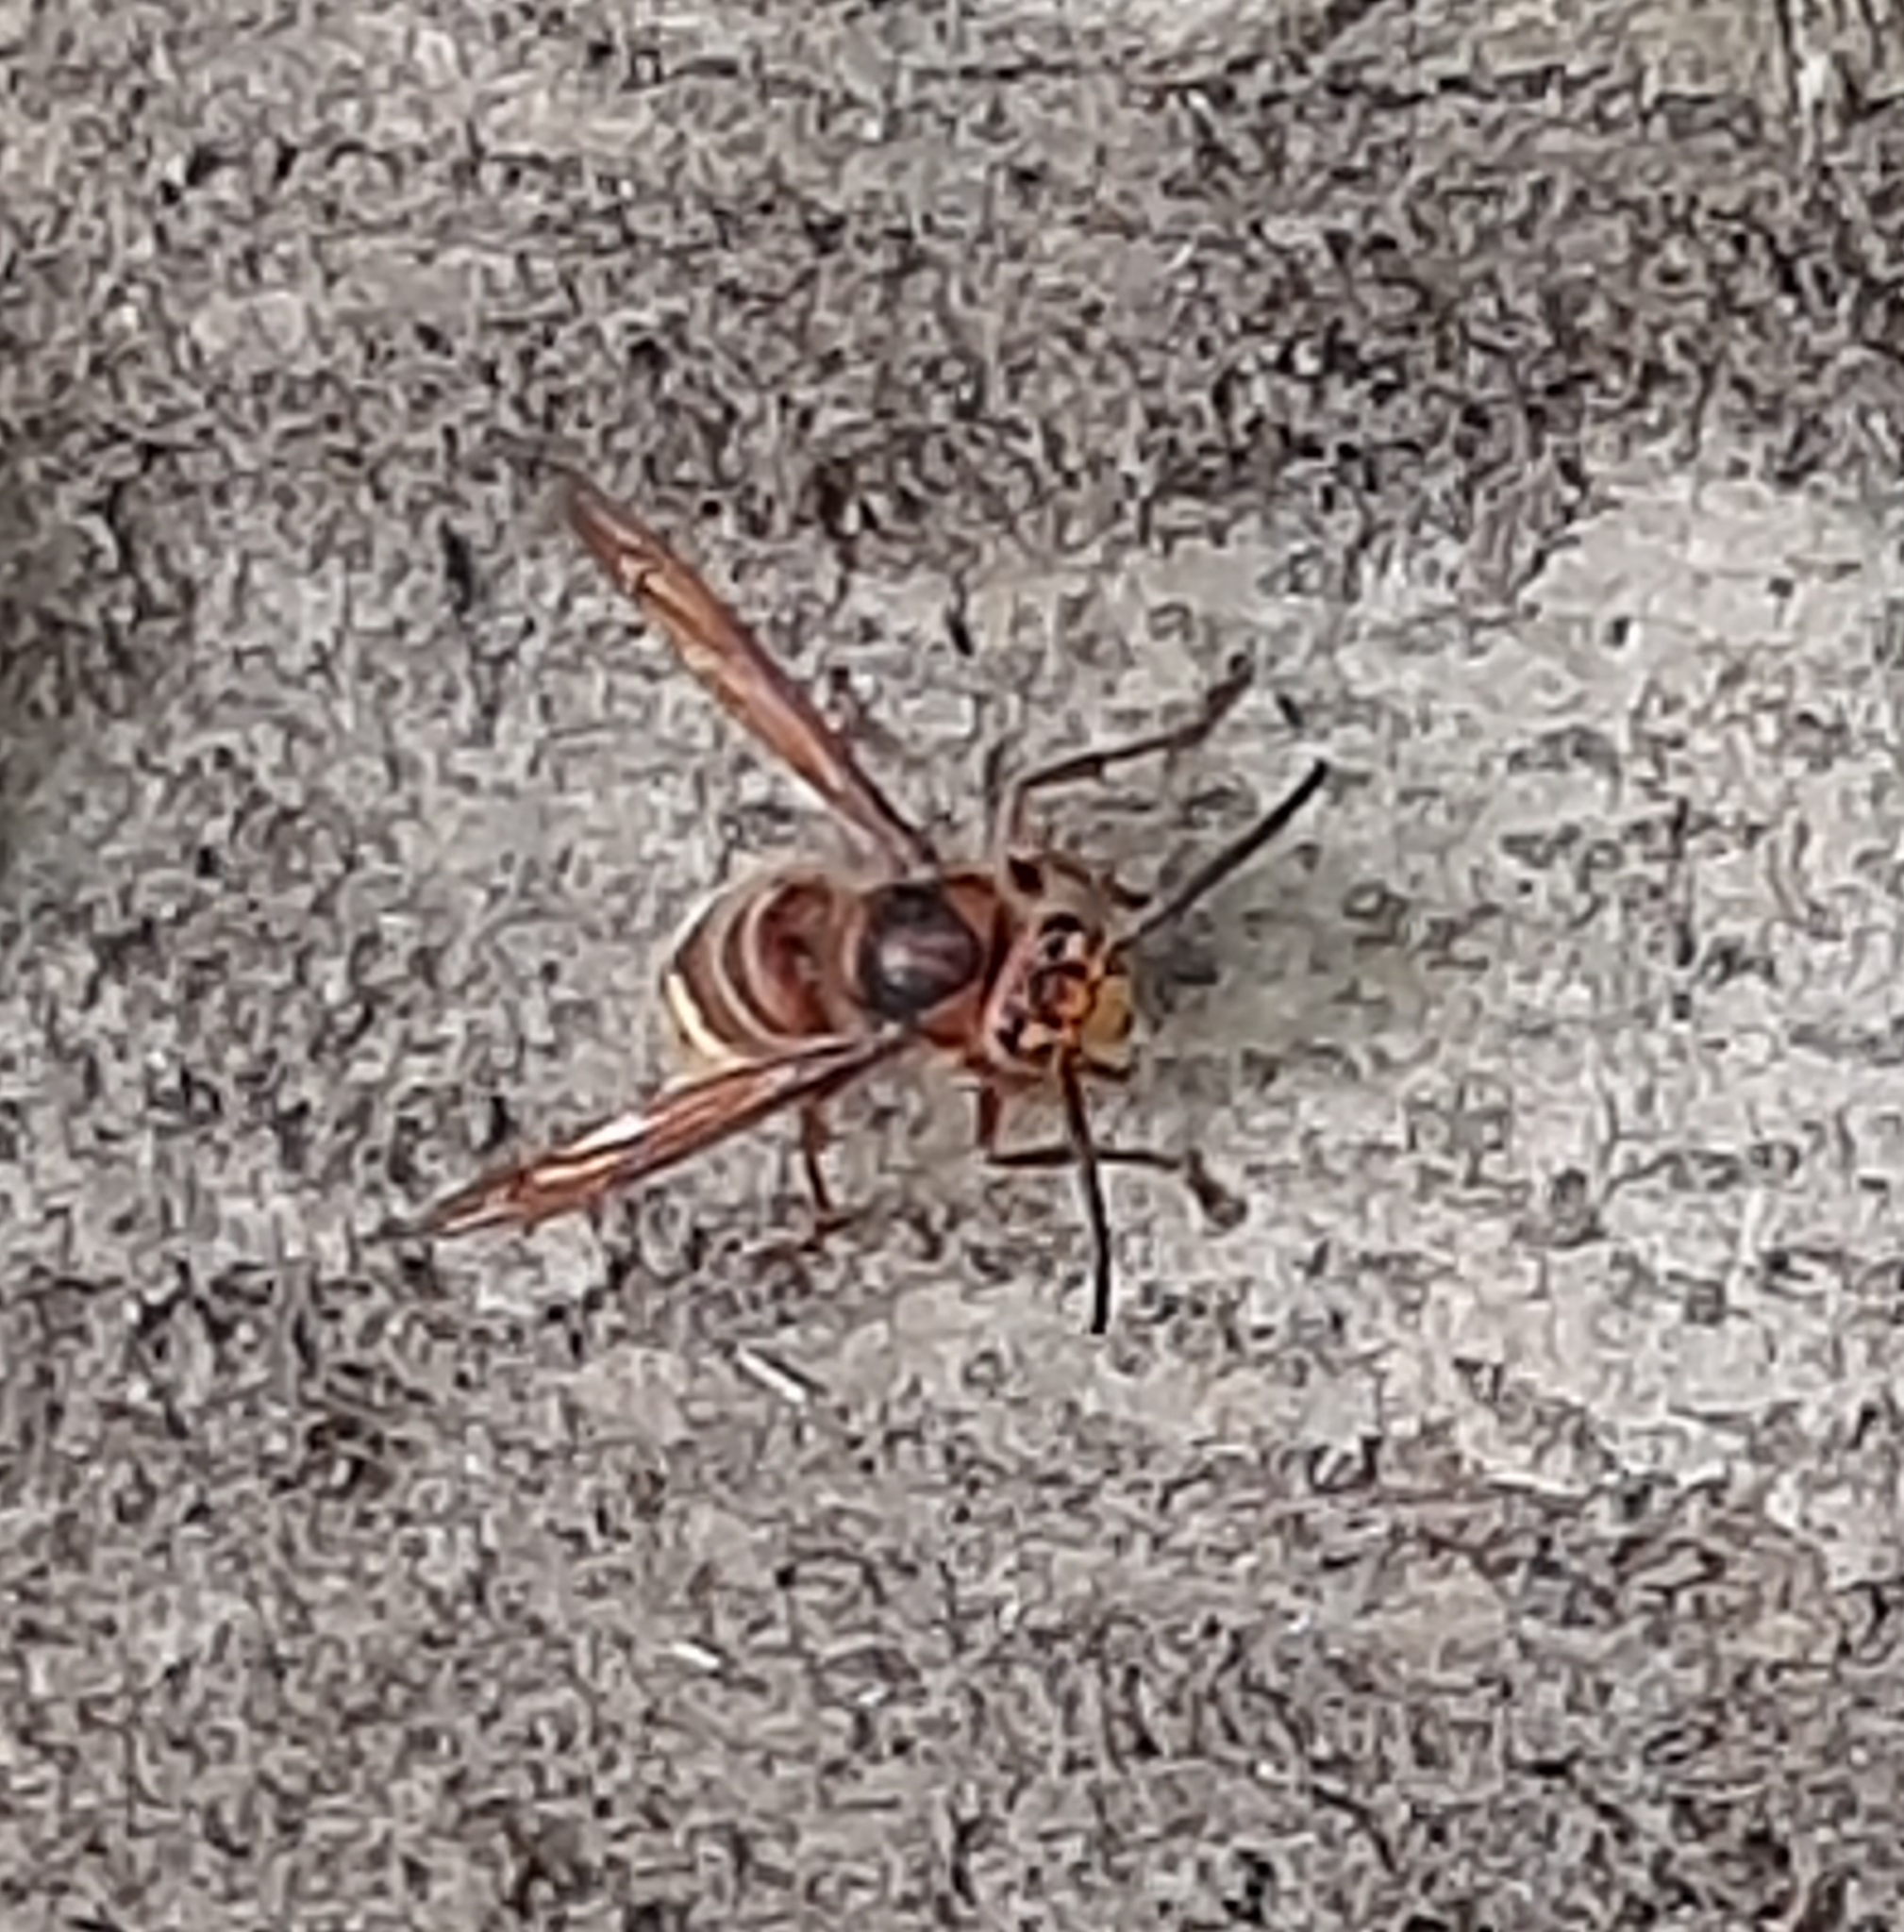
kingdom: Animalia
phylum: Arthropoda
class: Insecta
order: Hymenoptera
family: Vespidae
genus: Vespa
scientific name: Vespa crabro
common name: Hornet
